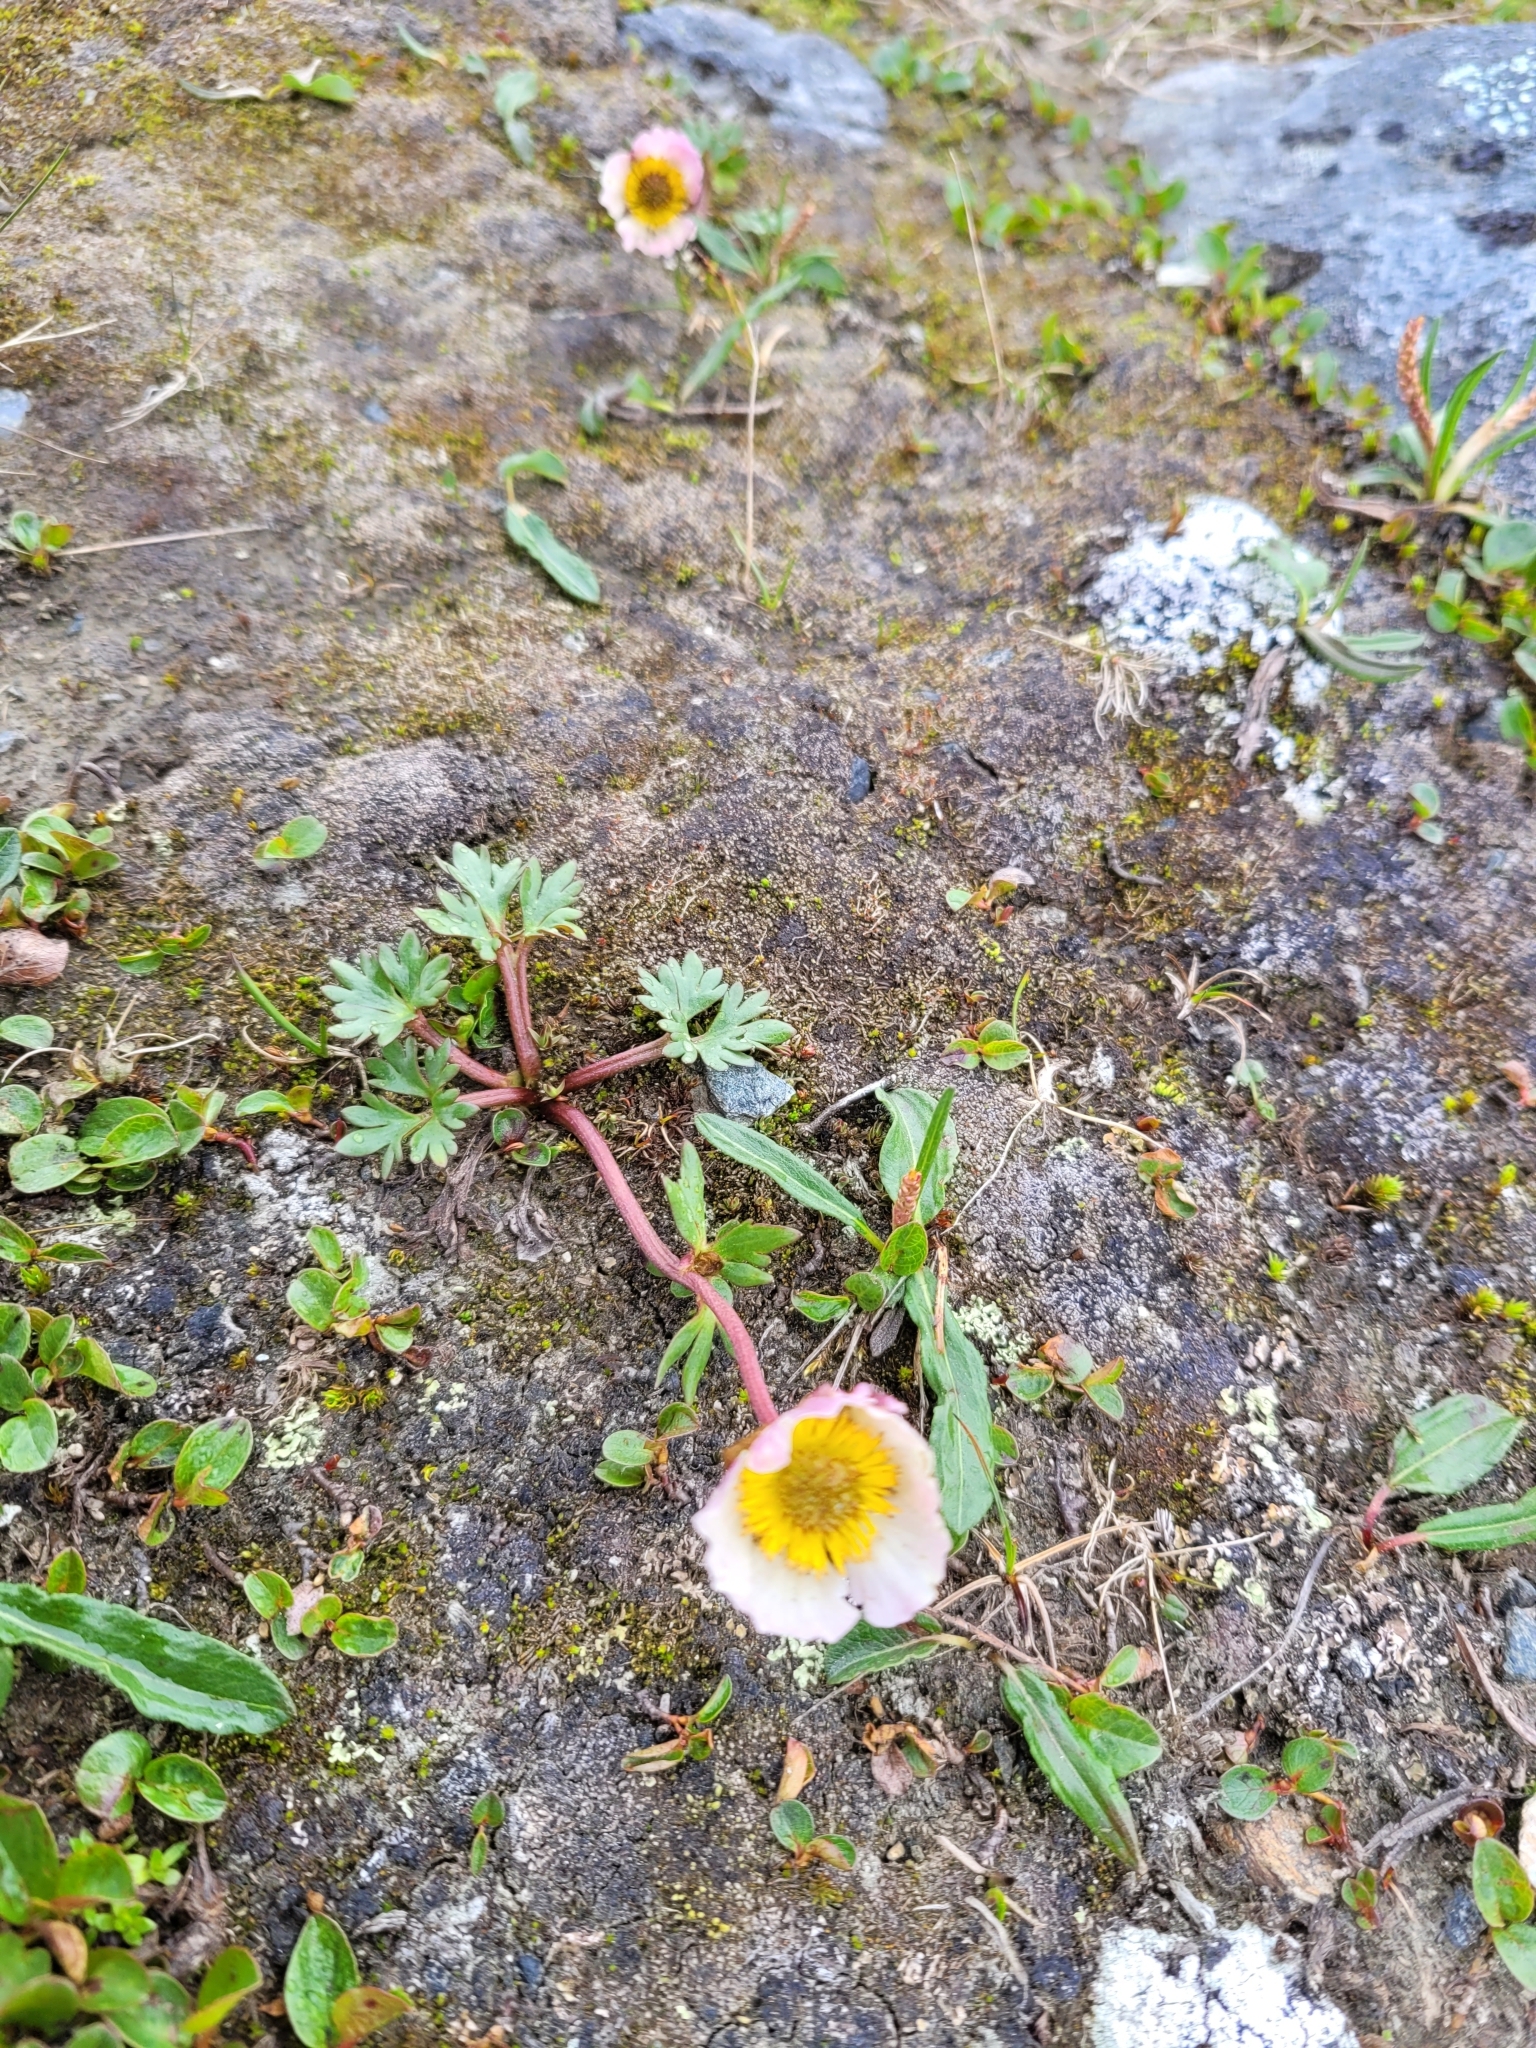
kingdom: Plantae
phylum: Tracheophyta
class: Magnoliopsida
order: Ranunculales
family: Ranunculaceae
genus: Ranunculus
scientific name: Ranunculus glacialis
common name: Glacier buttercup
